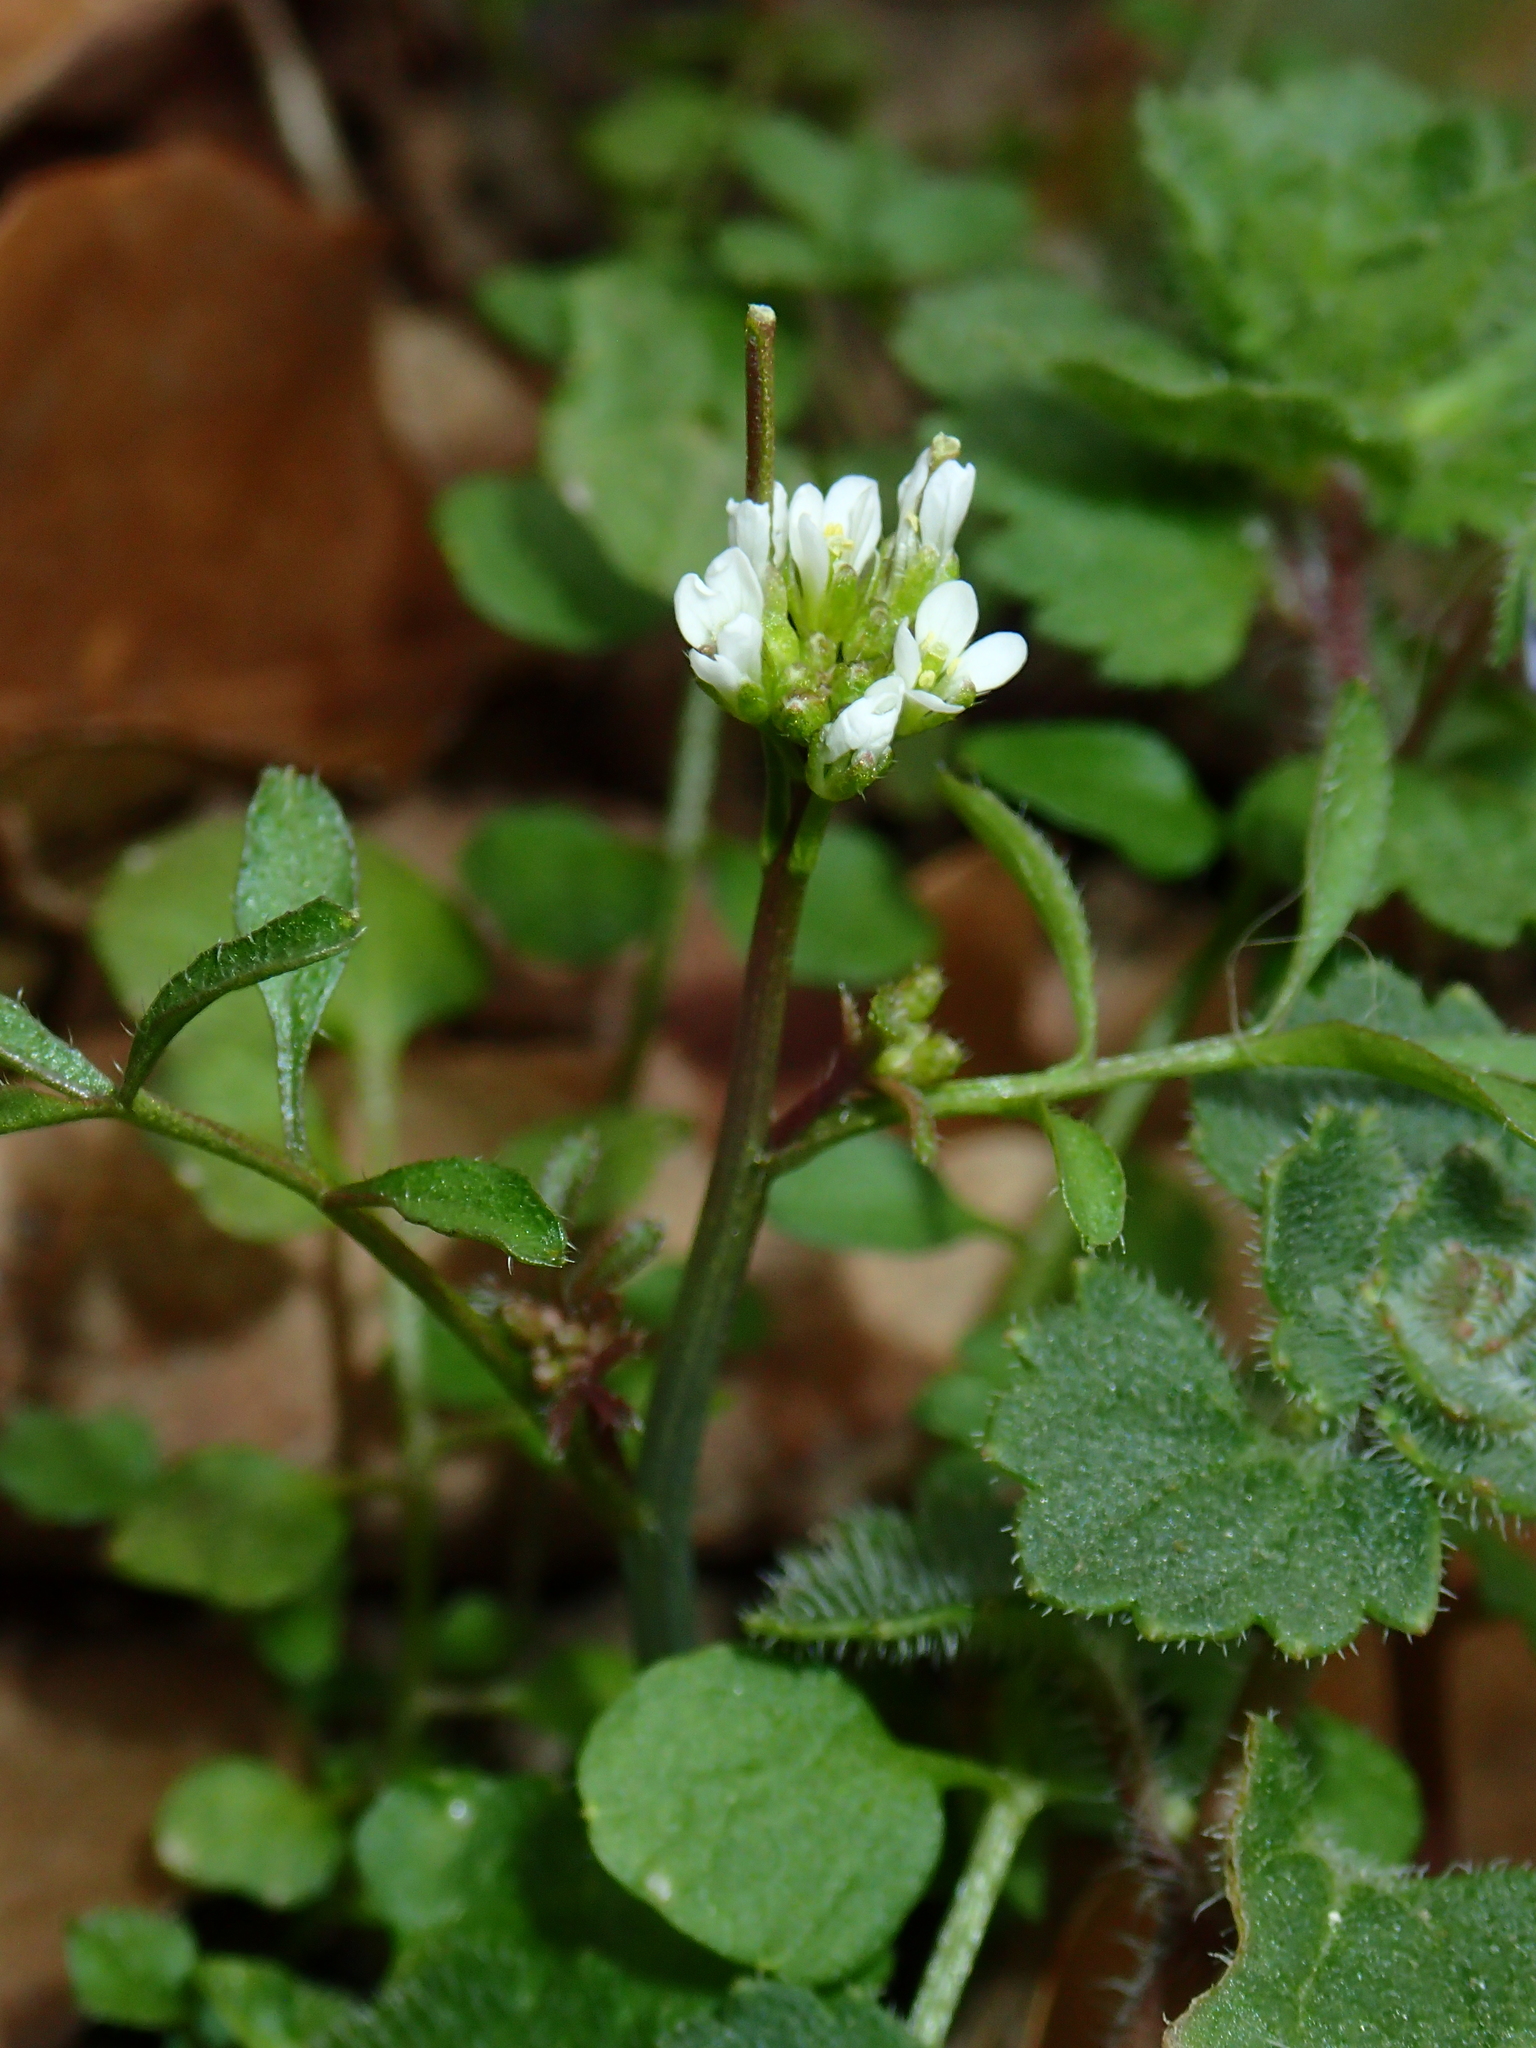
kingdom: Plantae
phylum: Tracheophyta
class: Magnoliopsida
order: Brassicales
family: Brassicaceae
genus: Cardamine
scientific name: Cardamine hirsuta
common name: Hairy bittercress
